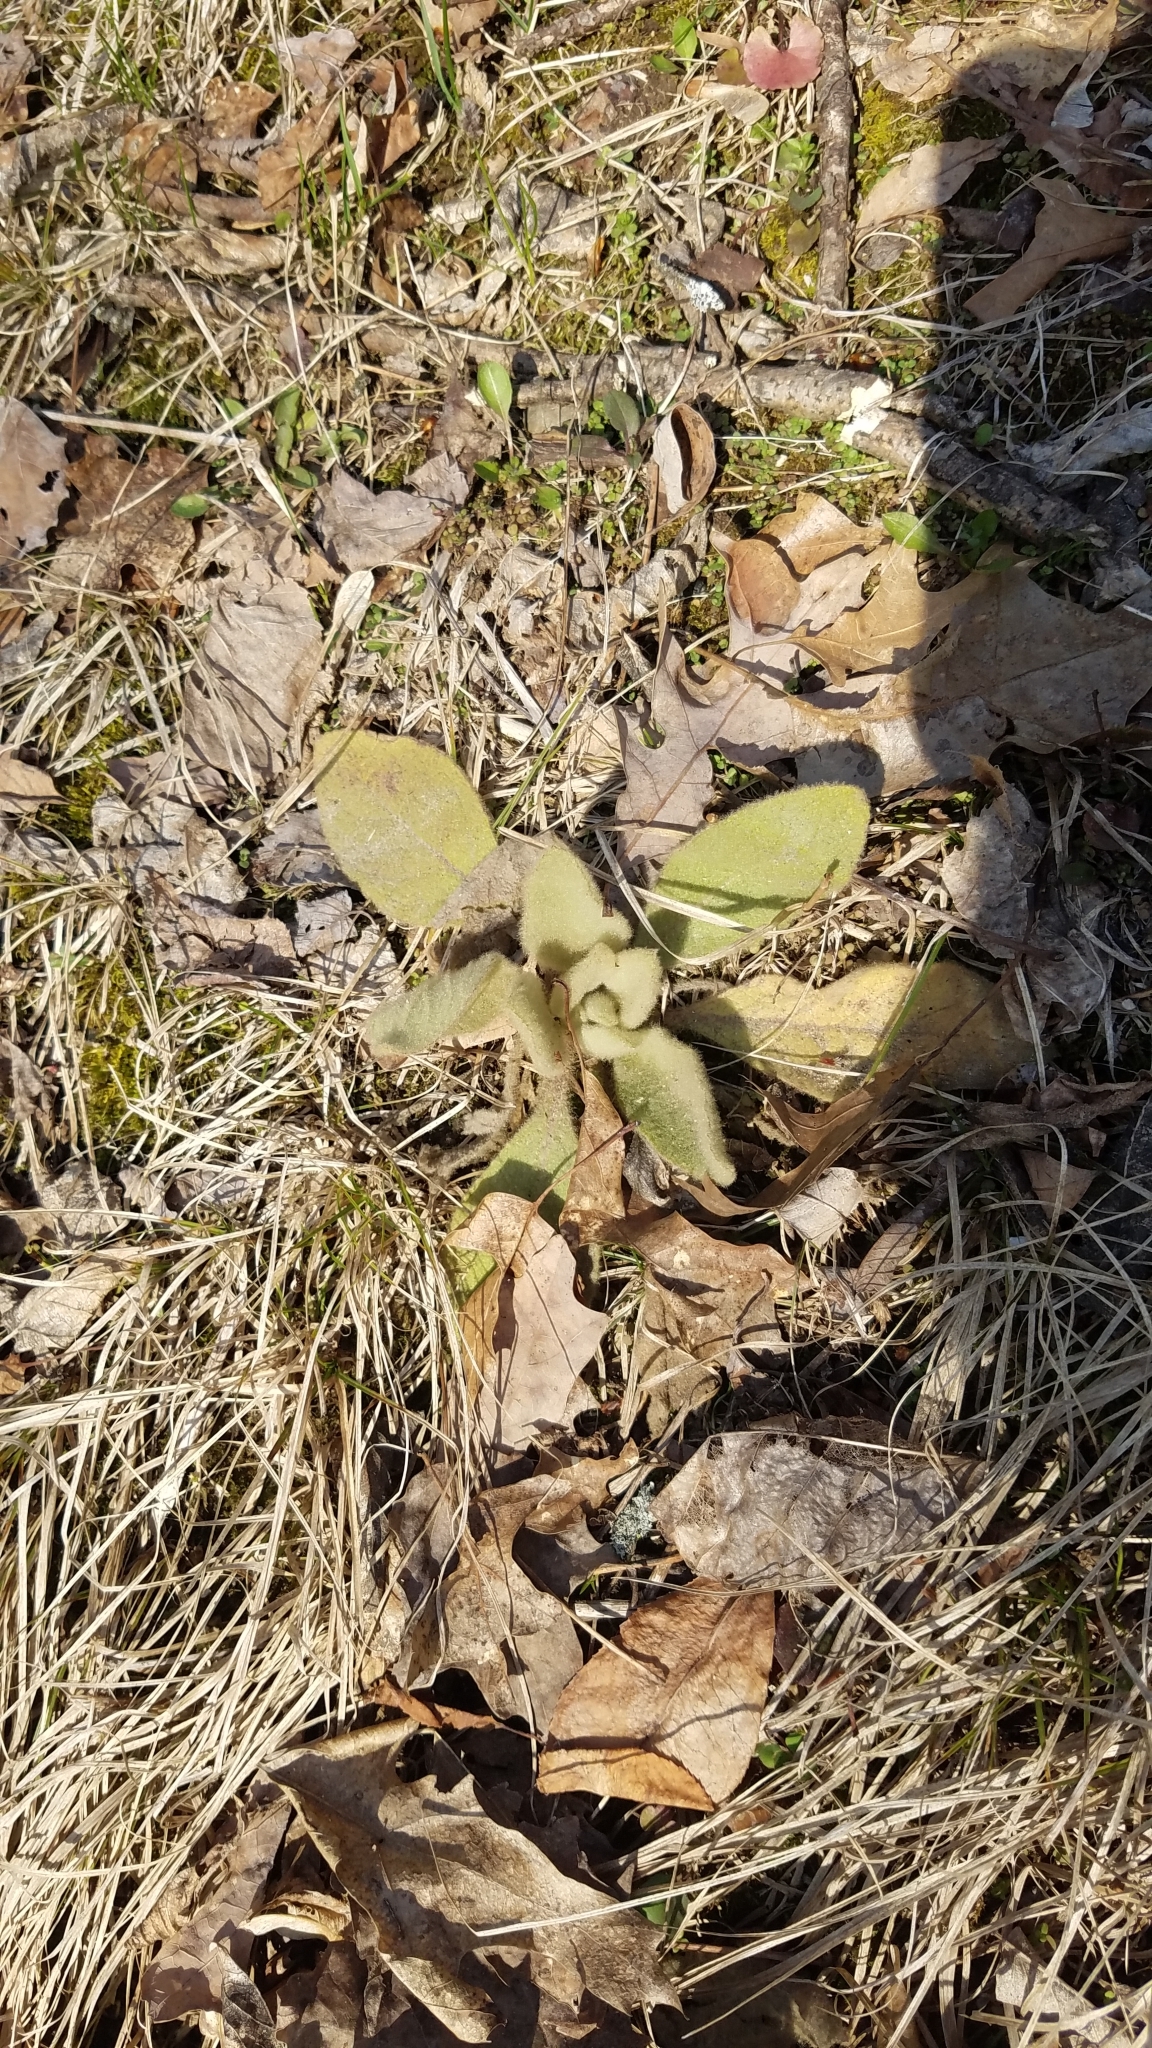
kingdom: Plantae
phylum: Tracheophyta
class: Magnoliopsida
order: Lamiales
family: Scrophulariaceae
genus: Verbascum
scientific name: Verbascum thapsus
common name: Common mullein
